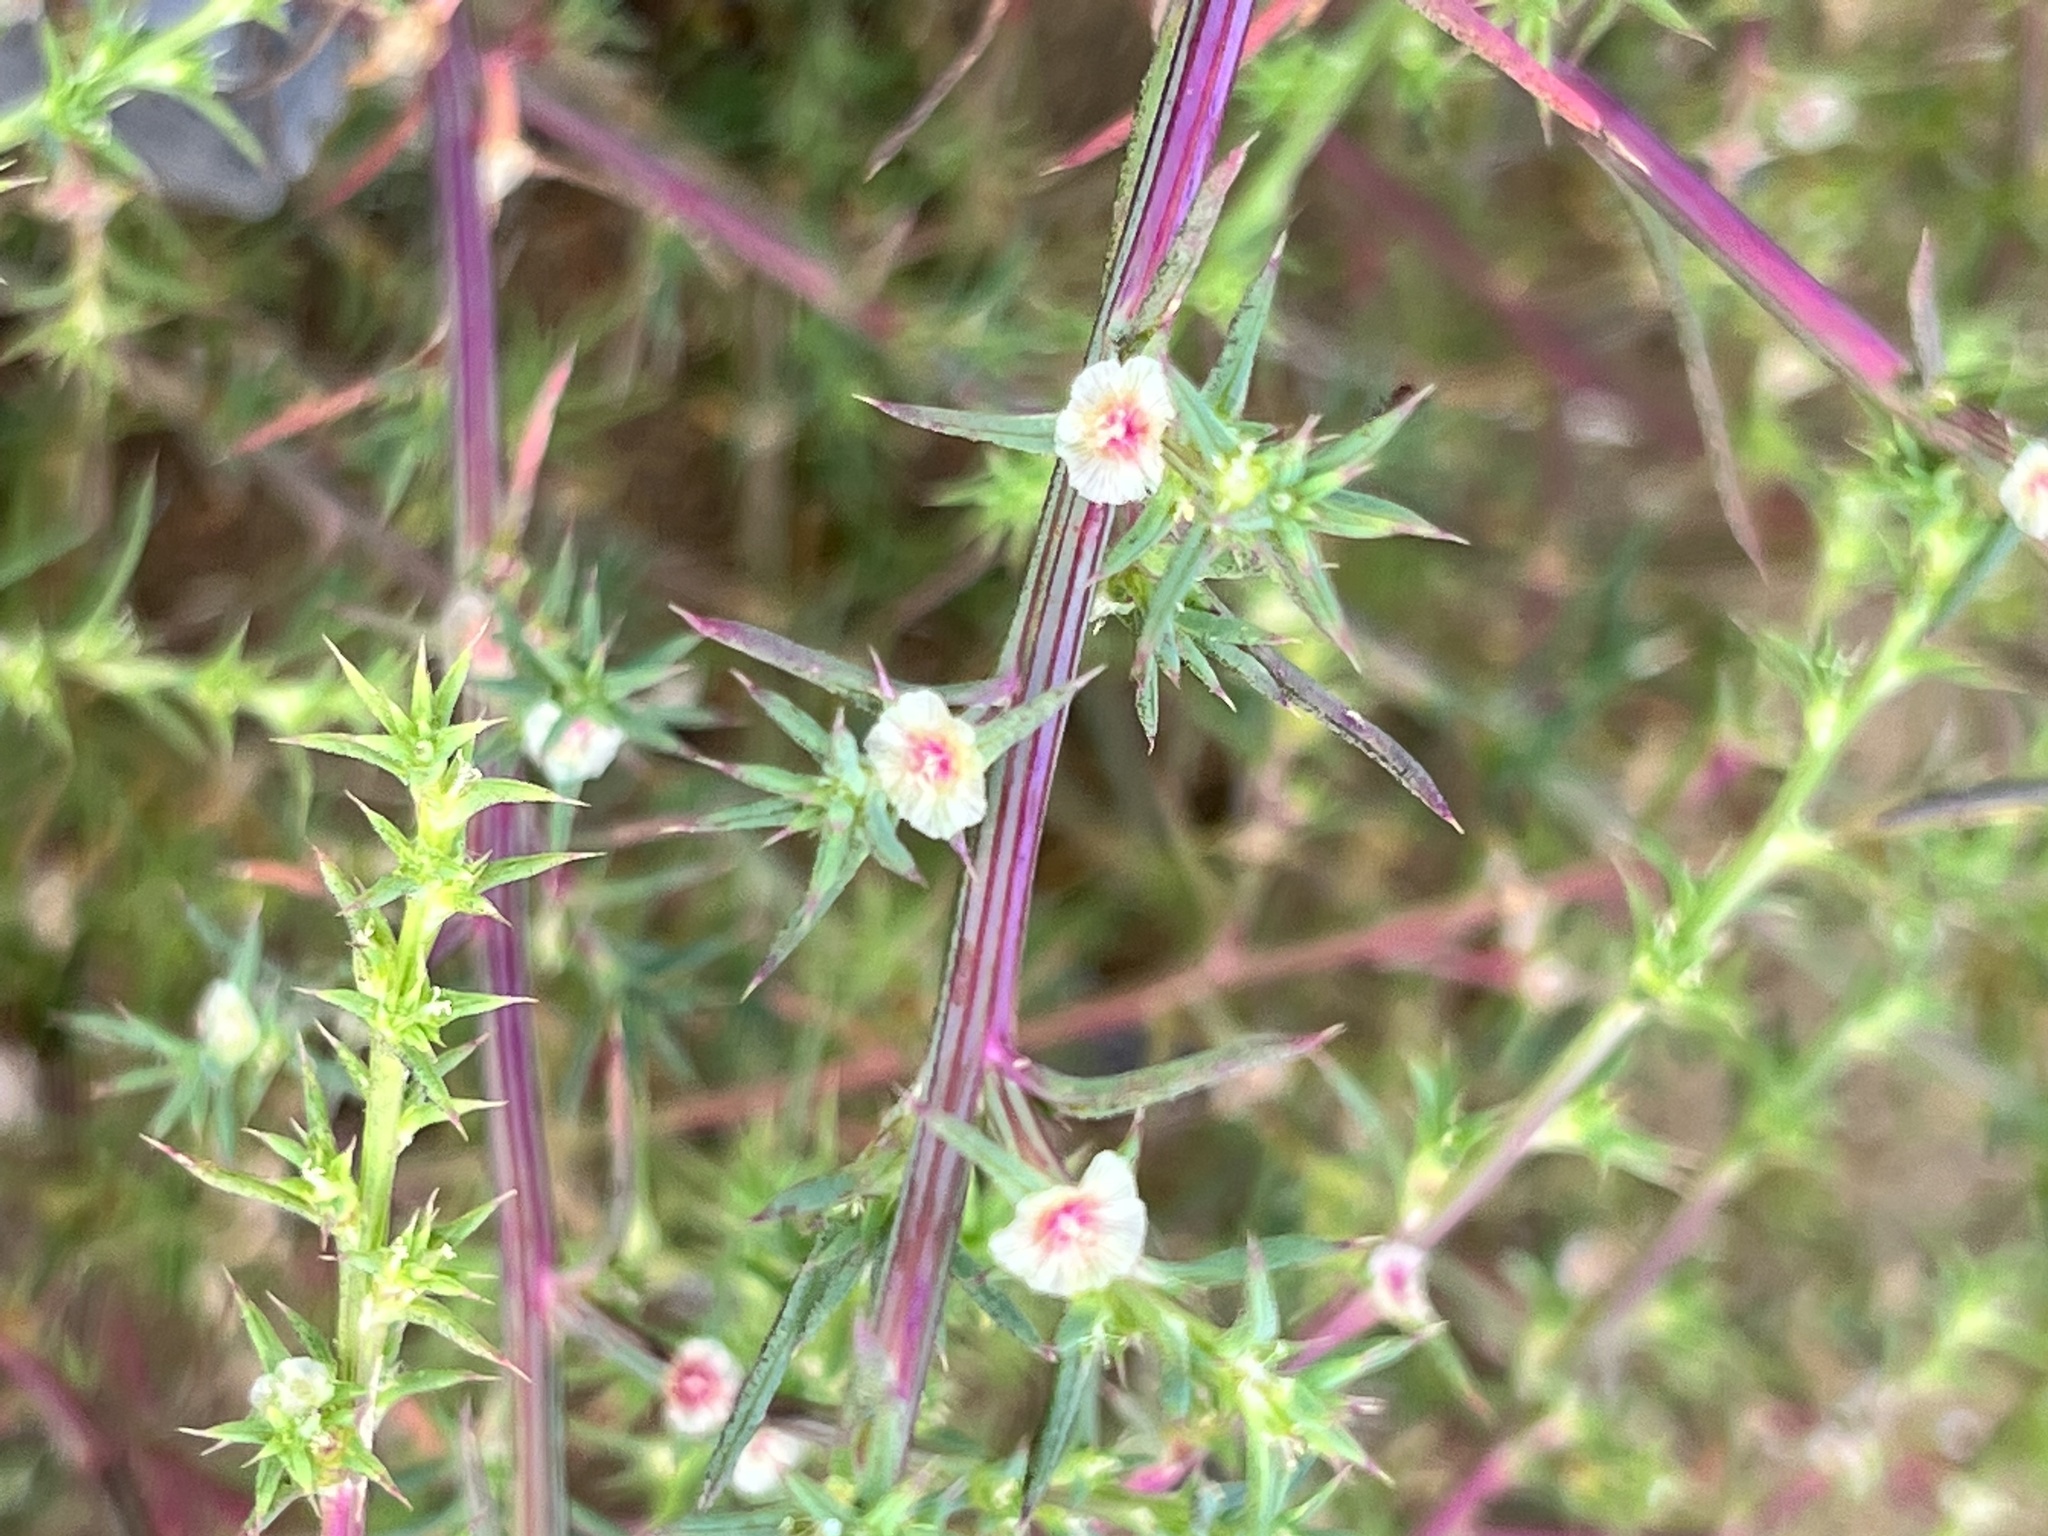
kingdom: Plantae
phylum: Tracheophyta
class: Magnoliopsida
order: Caryophyllales
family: Amaranthaceae
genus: Salsola
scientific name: Salsola australis
